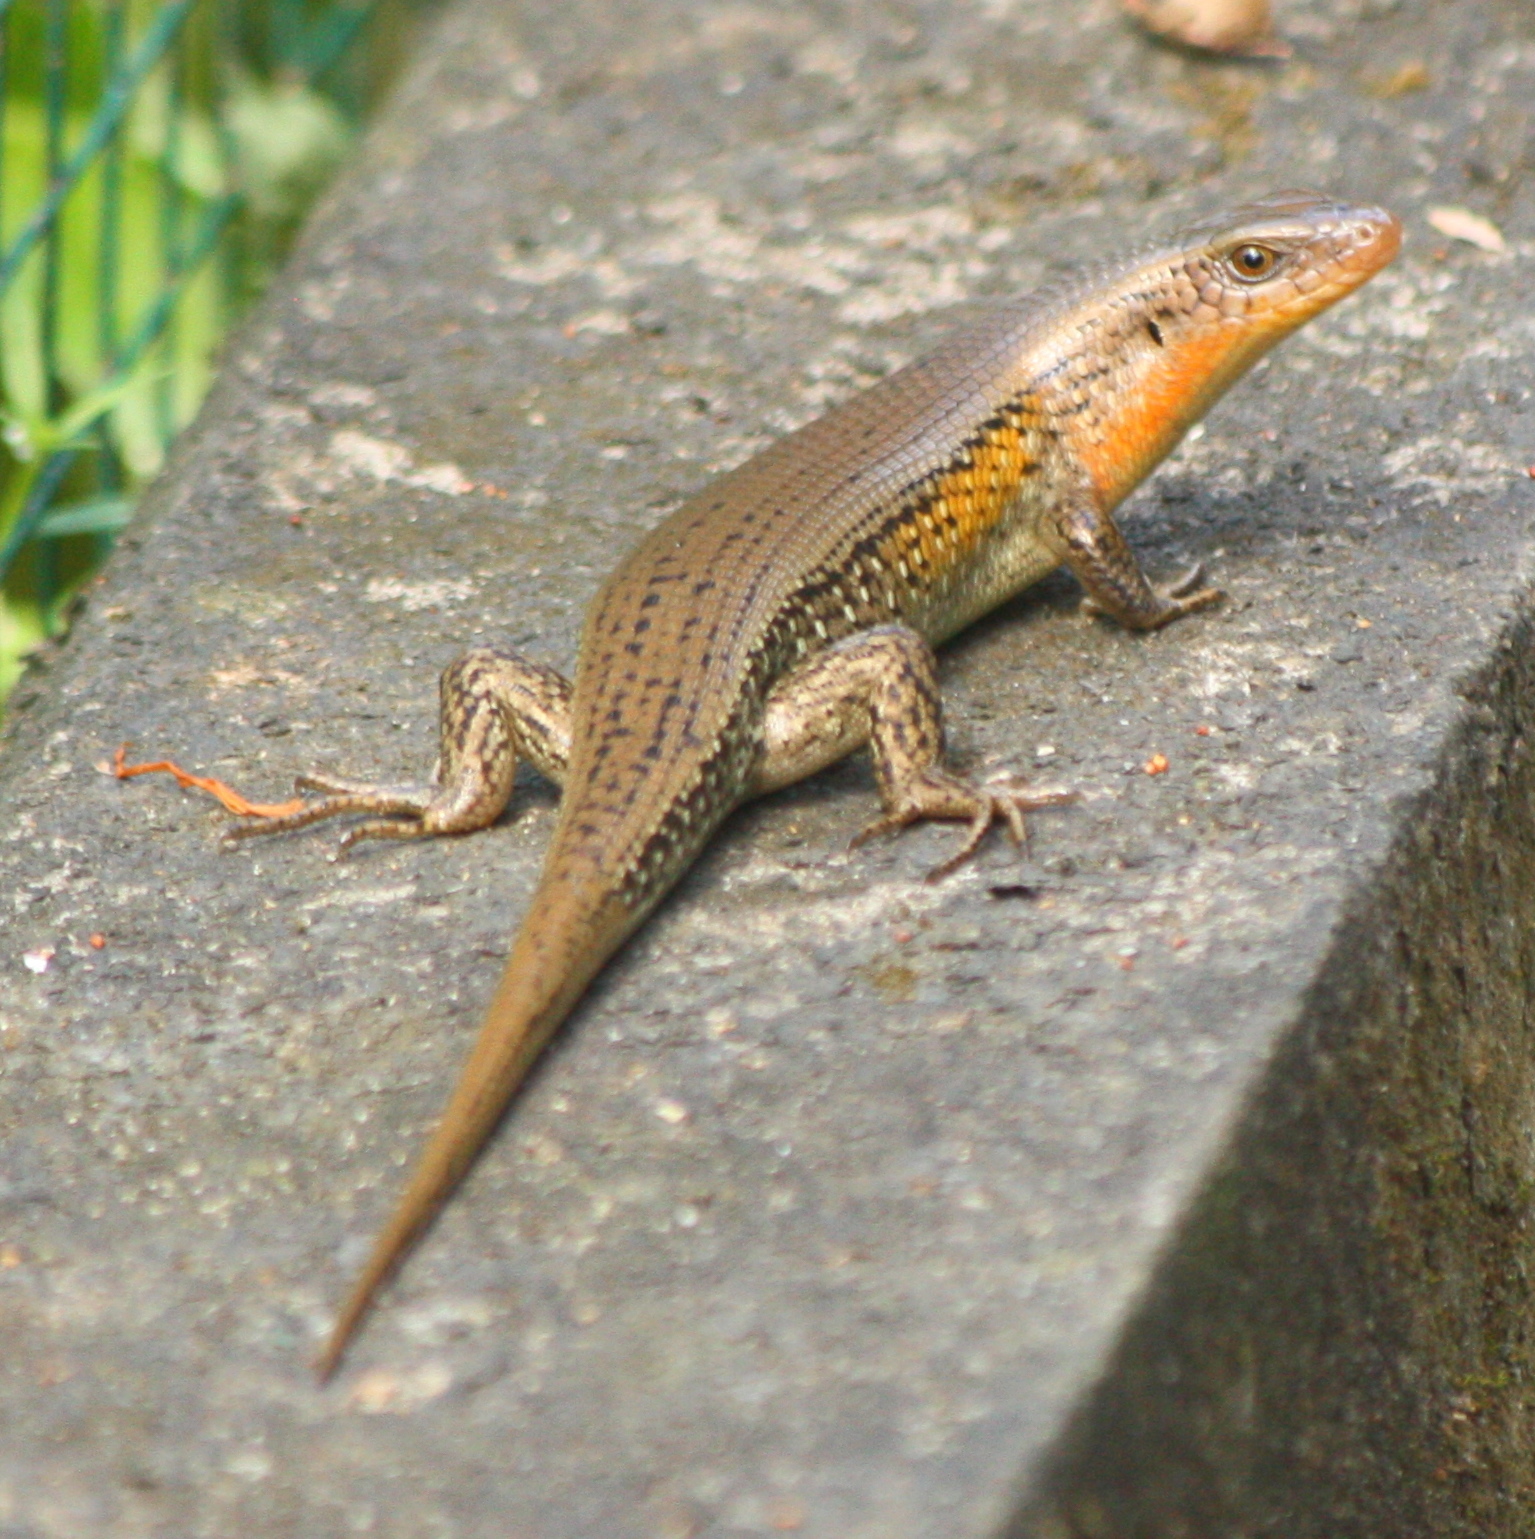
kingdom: Animalia
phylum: Chordata
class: Squamata
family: Scincidae
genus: Eutropis
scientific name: Eutropis multifasciata
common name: Common mabuya
